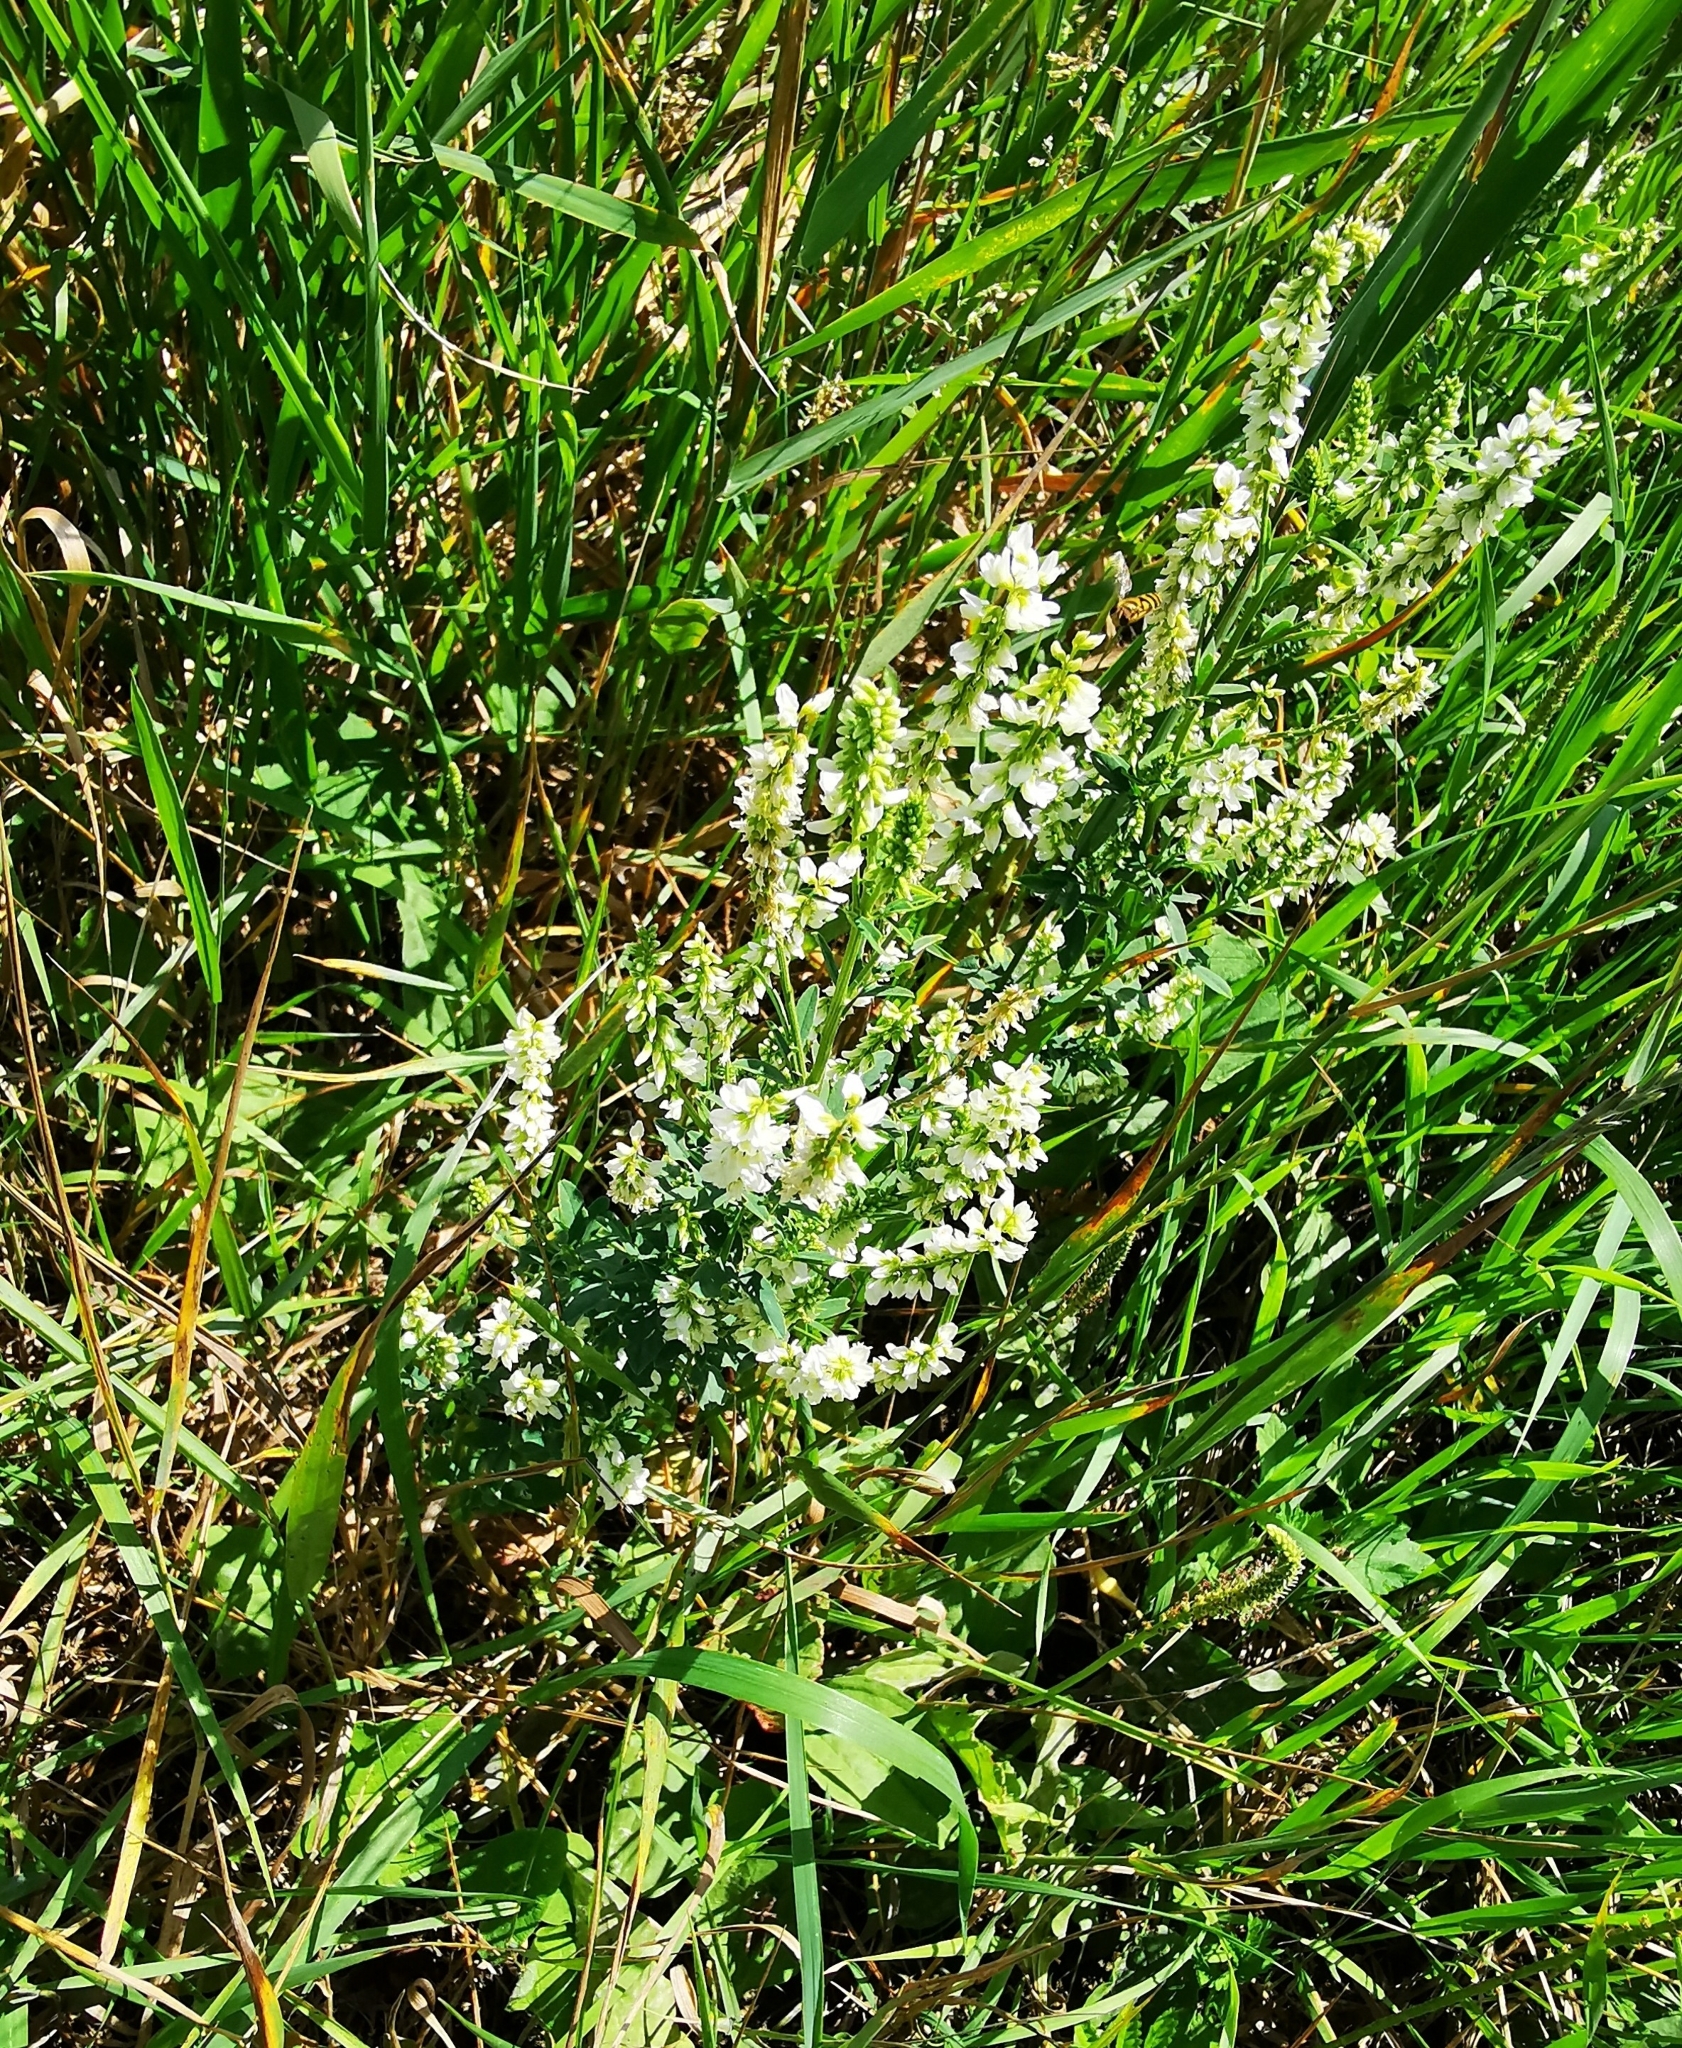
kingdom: Plantae
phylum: Tracheophyta
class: Magnoliopsida
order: Fabales
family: Fabaceae
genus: Melilotus
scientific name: Melilotus albus
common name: White melilot
